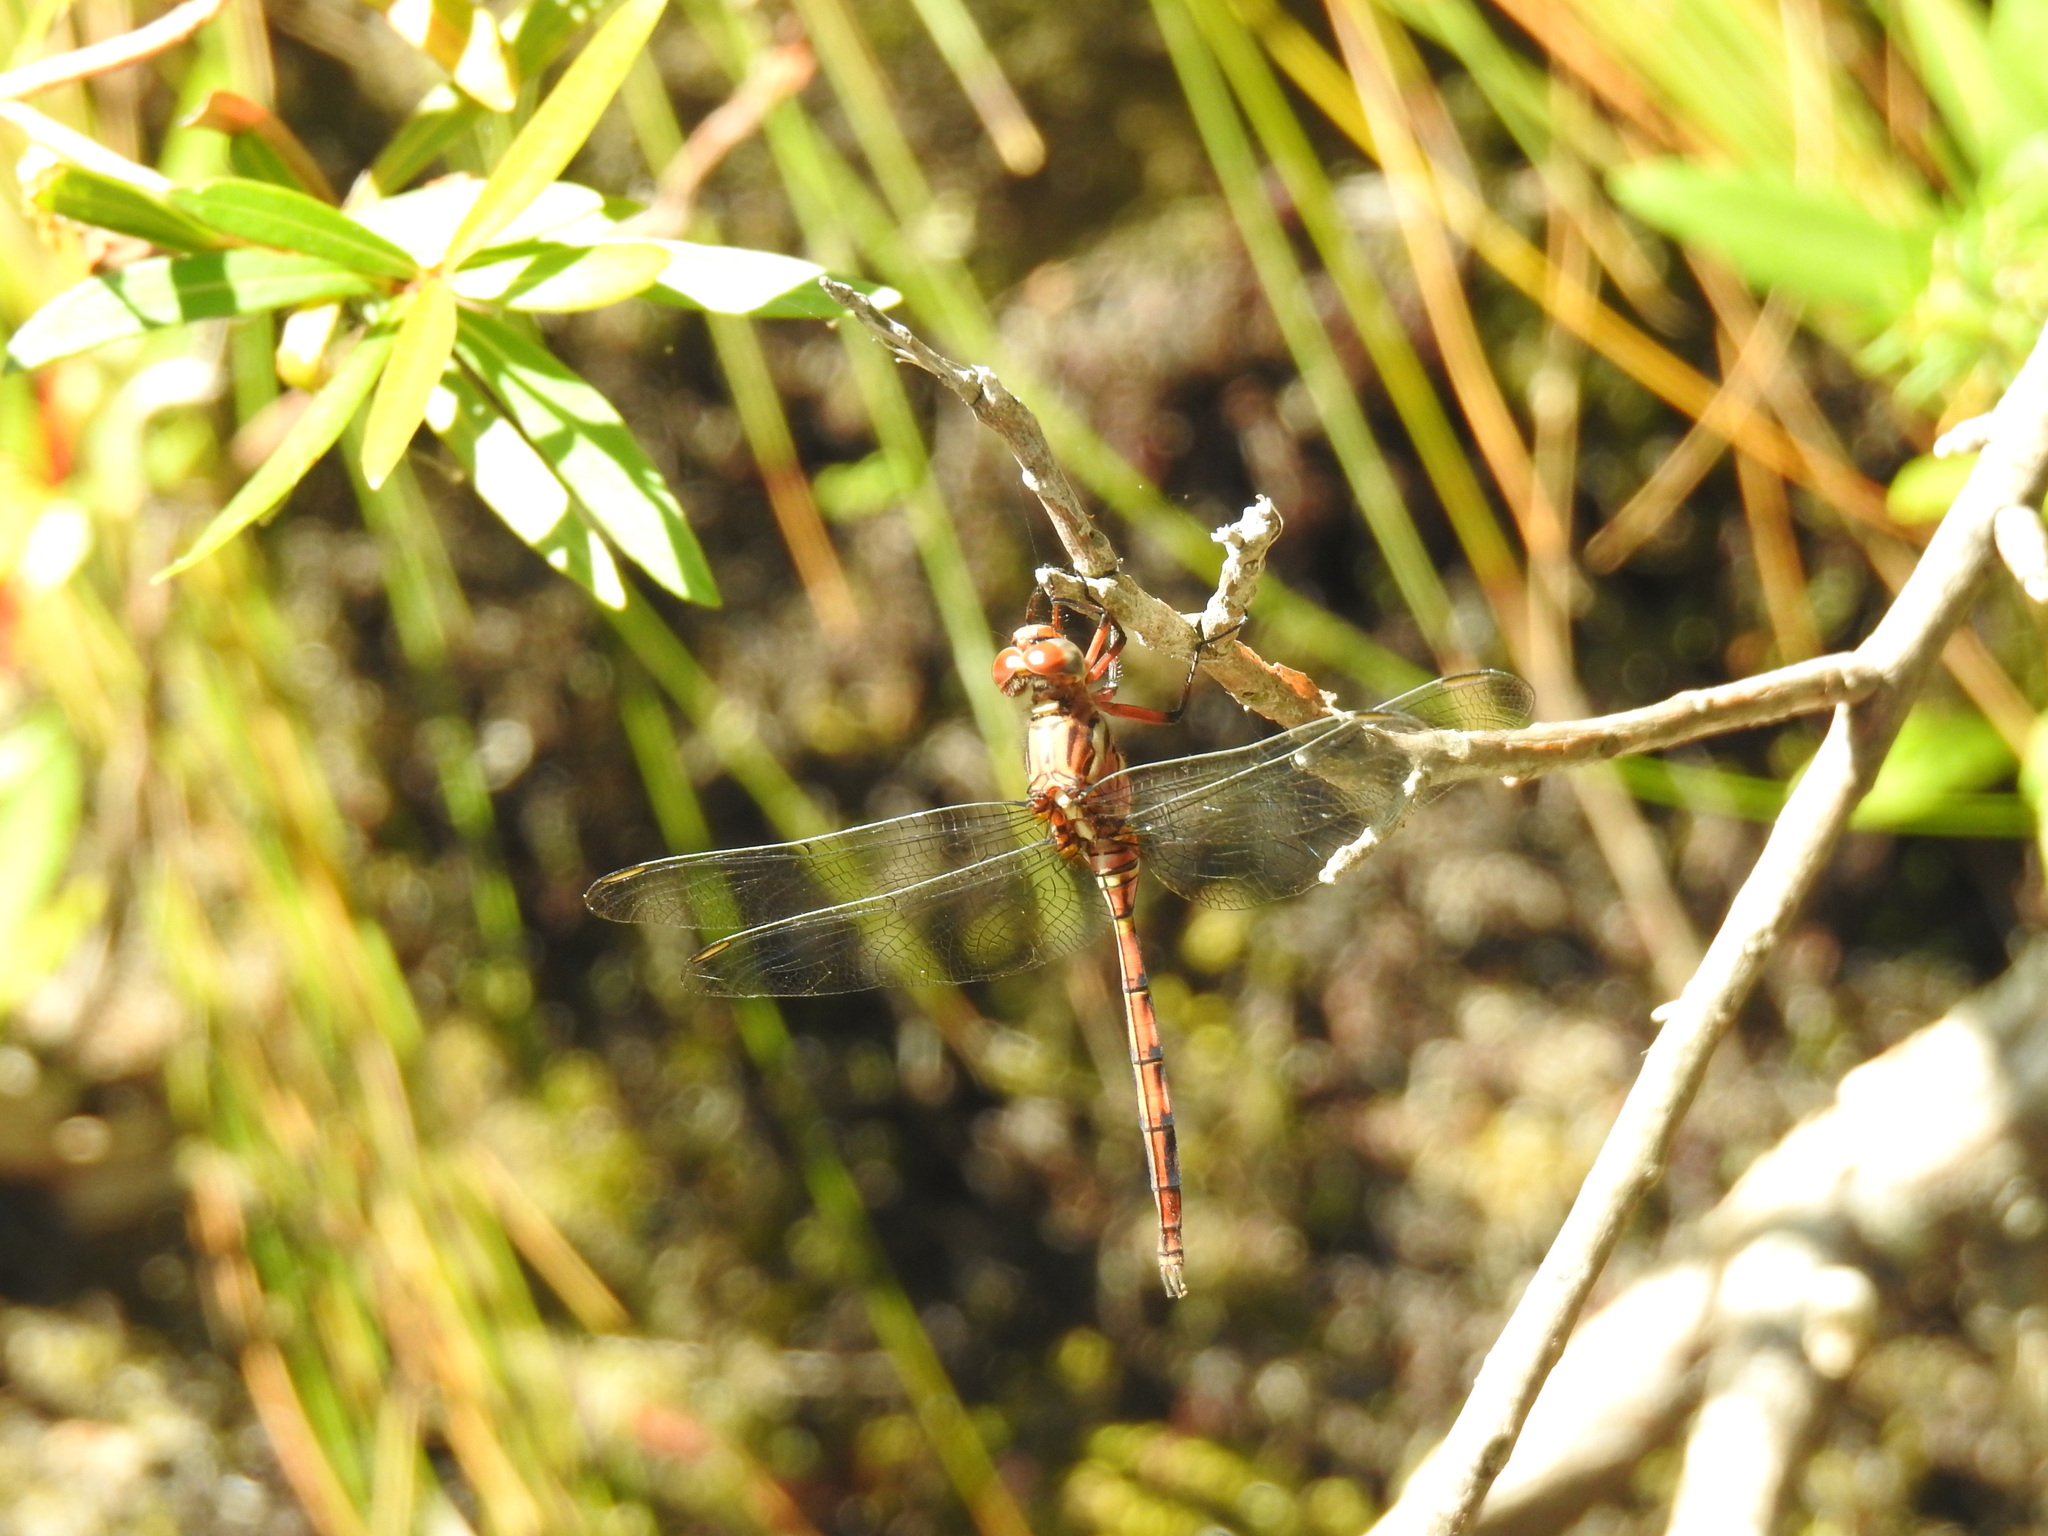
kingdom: Animalia
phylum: Arthropoda
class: Insecta
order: Odonata
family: Libellulidae
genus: Orthetrum
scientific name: Orthetrum julia
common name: Julia skimmer
